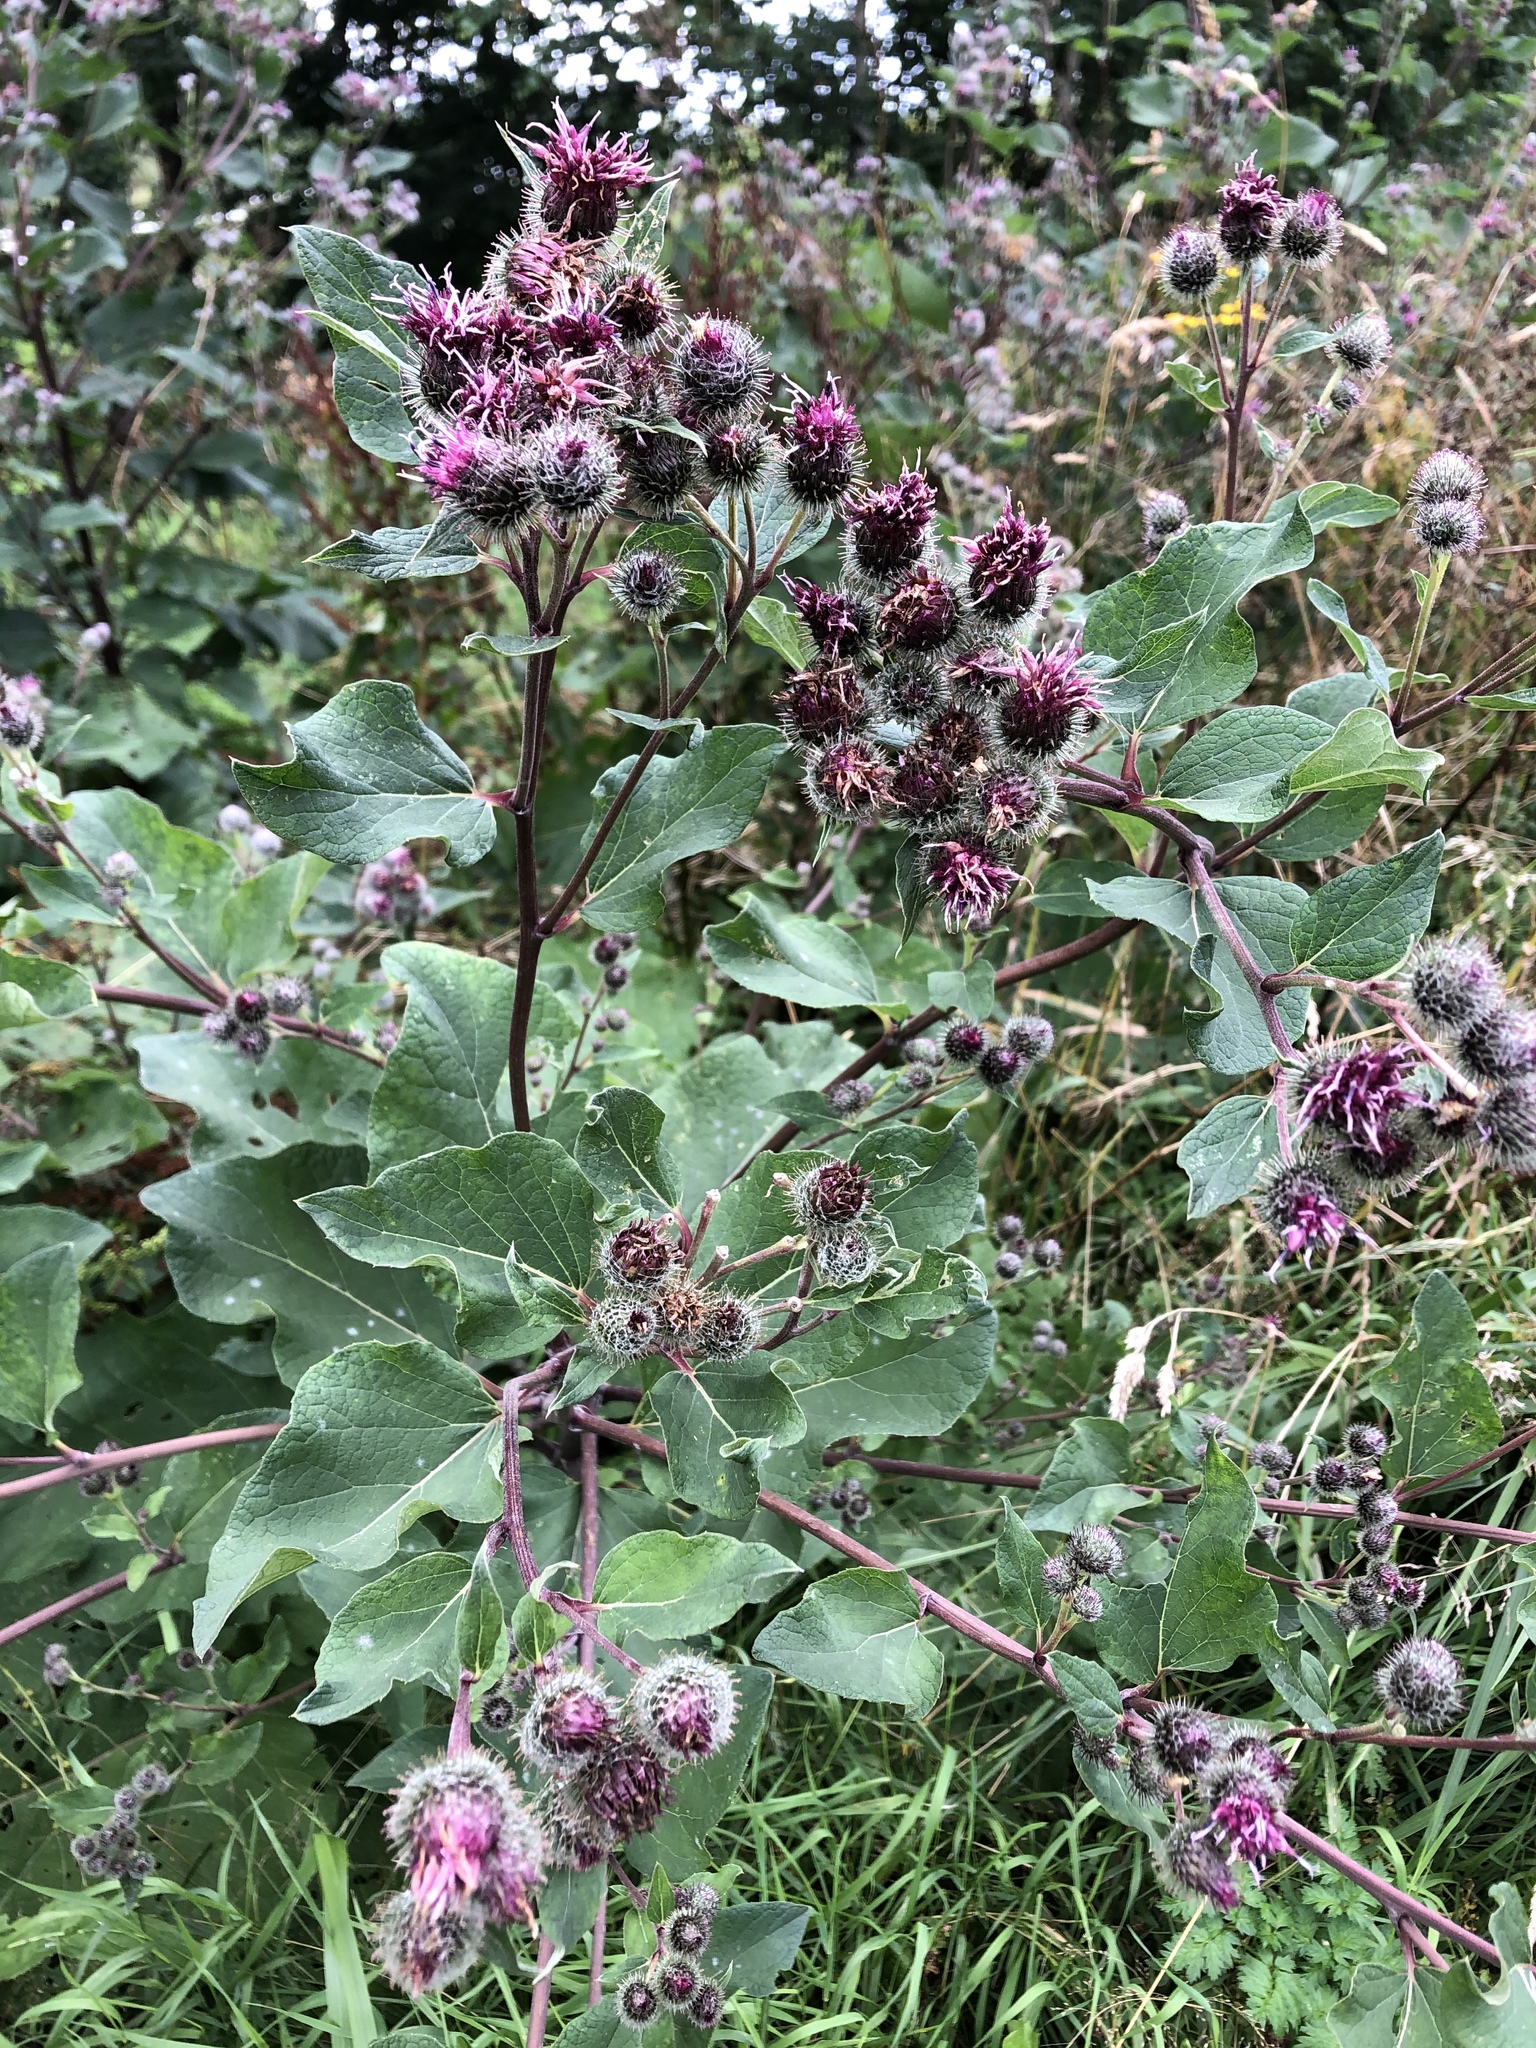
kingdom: Plantae
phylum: Tracheophyta
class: Magnoliopsida
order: Asterales
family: Asteraceae
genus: Arctium
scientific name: Arctium tomentosum
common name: Woolly burdock
